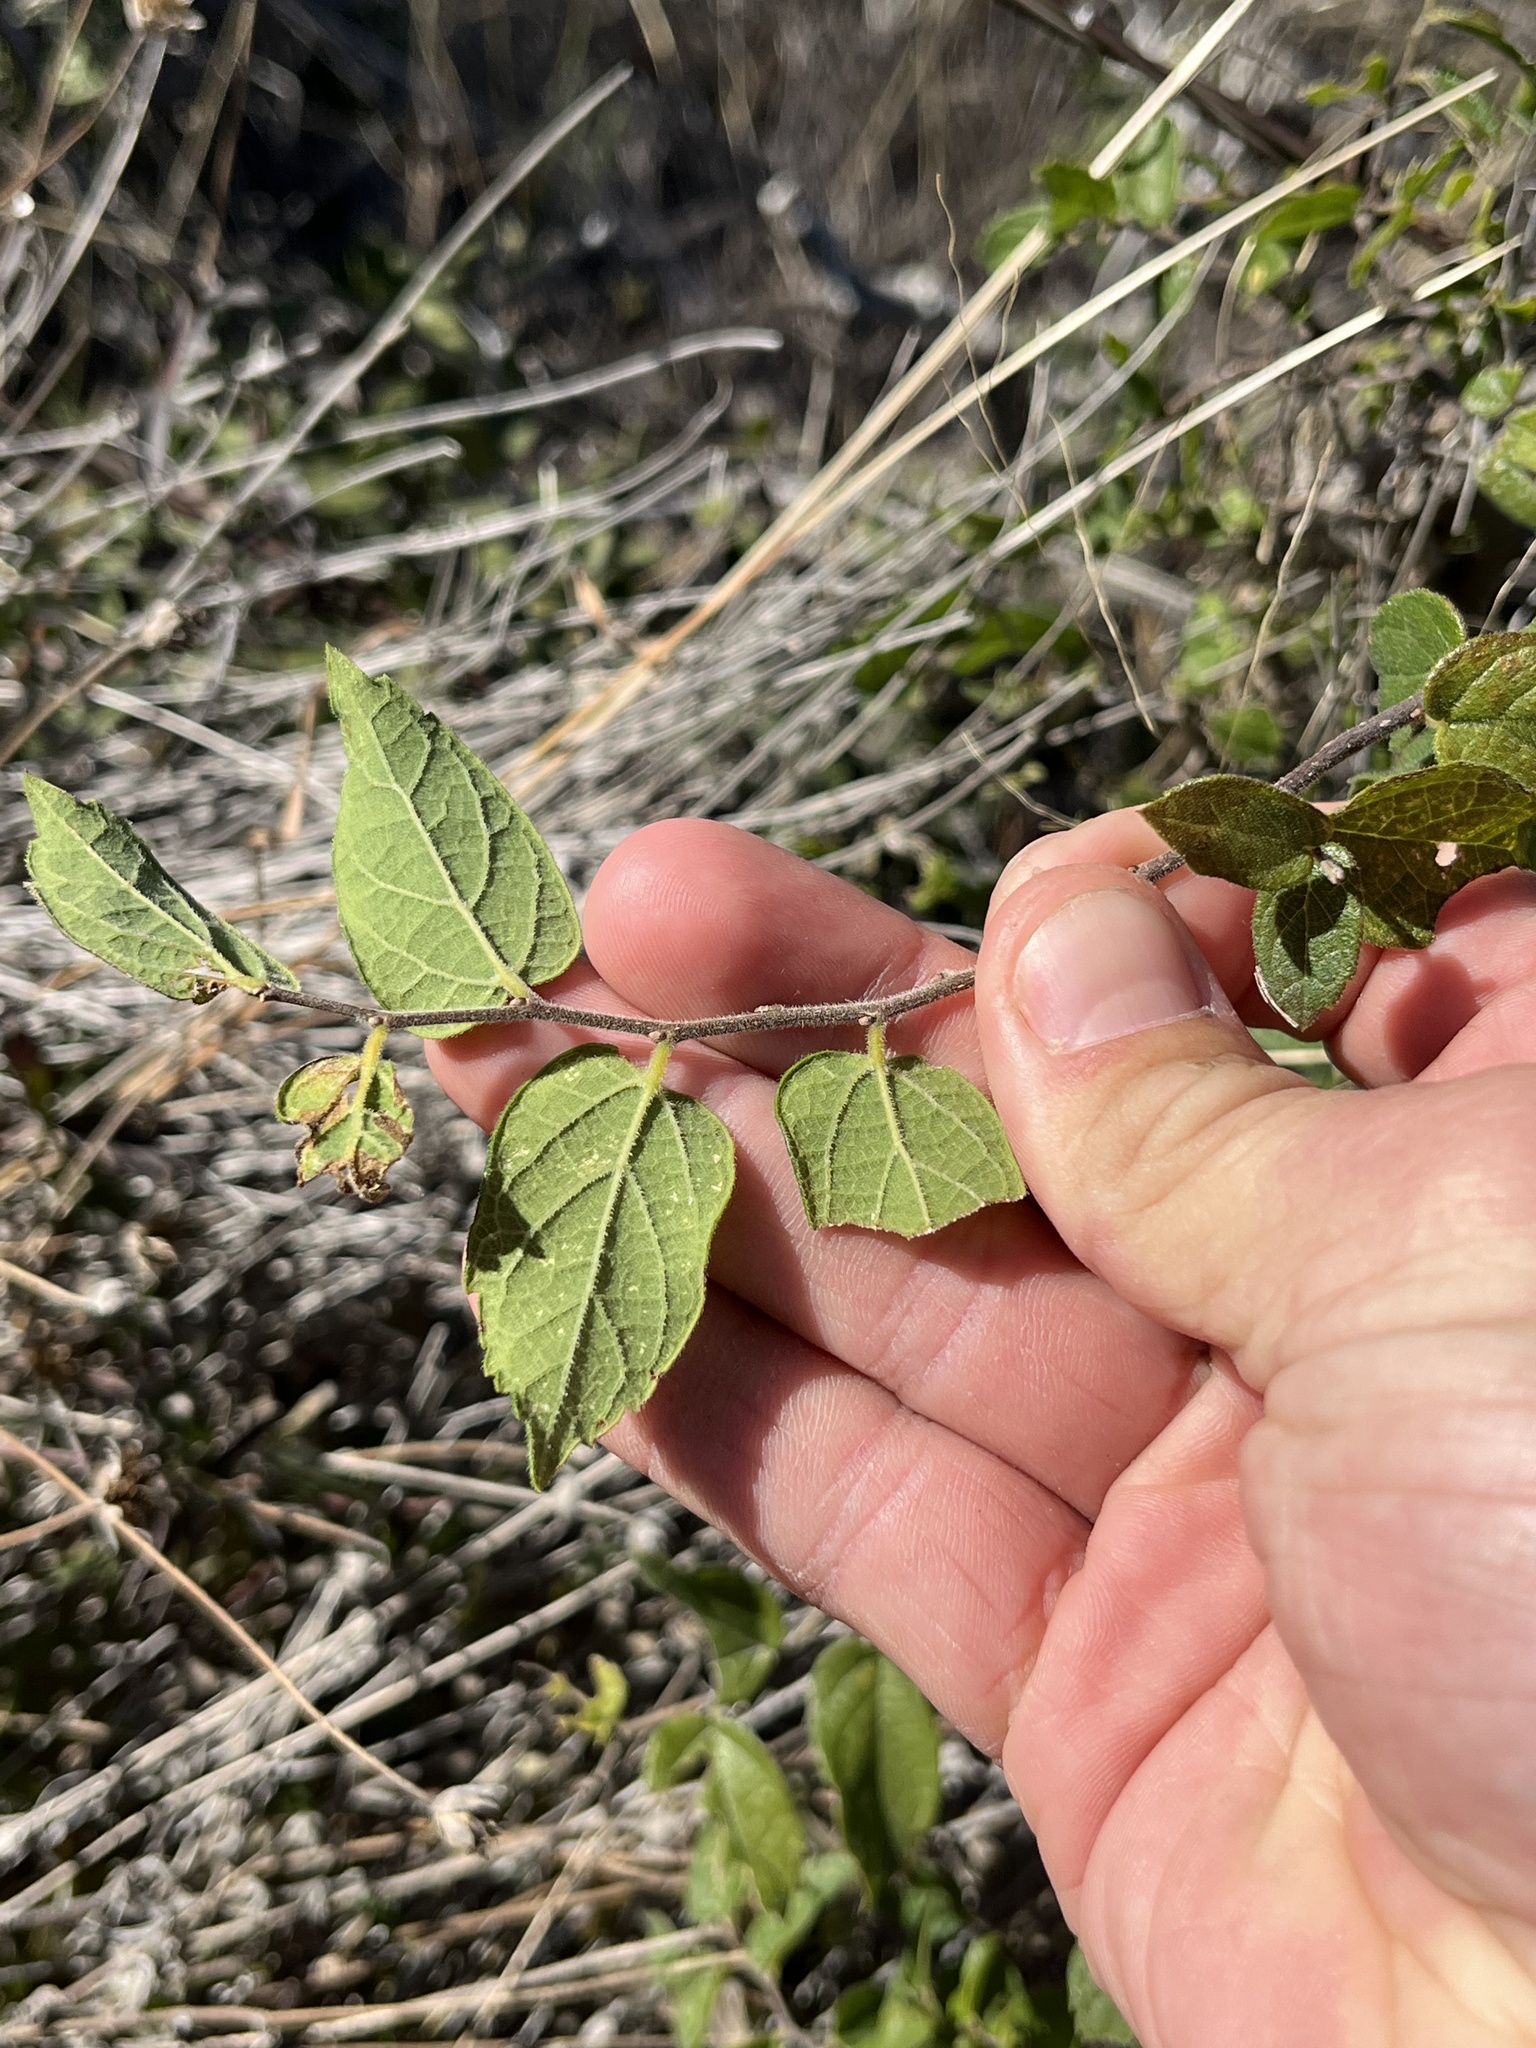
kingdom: Plantae
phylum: Tracheophyta
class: Magnoliopsida
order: Rosales
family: Cannabaceae
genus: Celtis
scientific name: Celtis reticulata
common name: Netleaf hackberry
